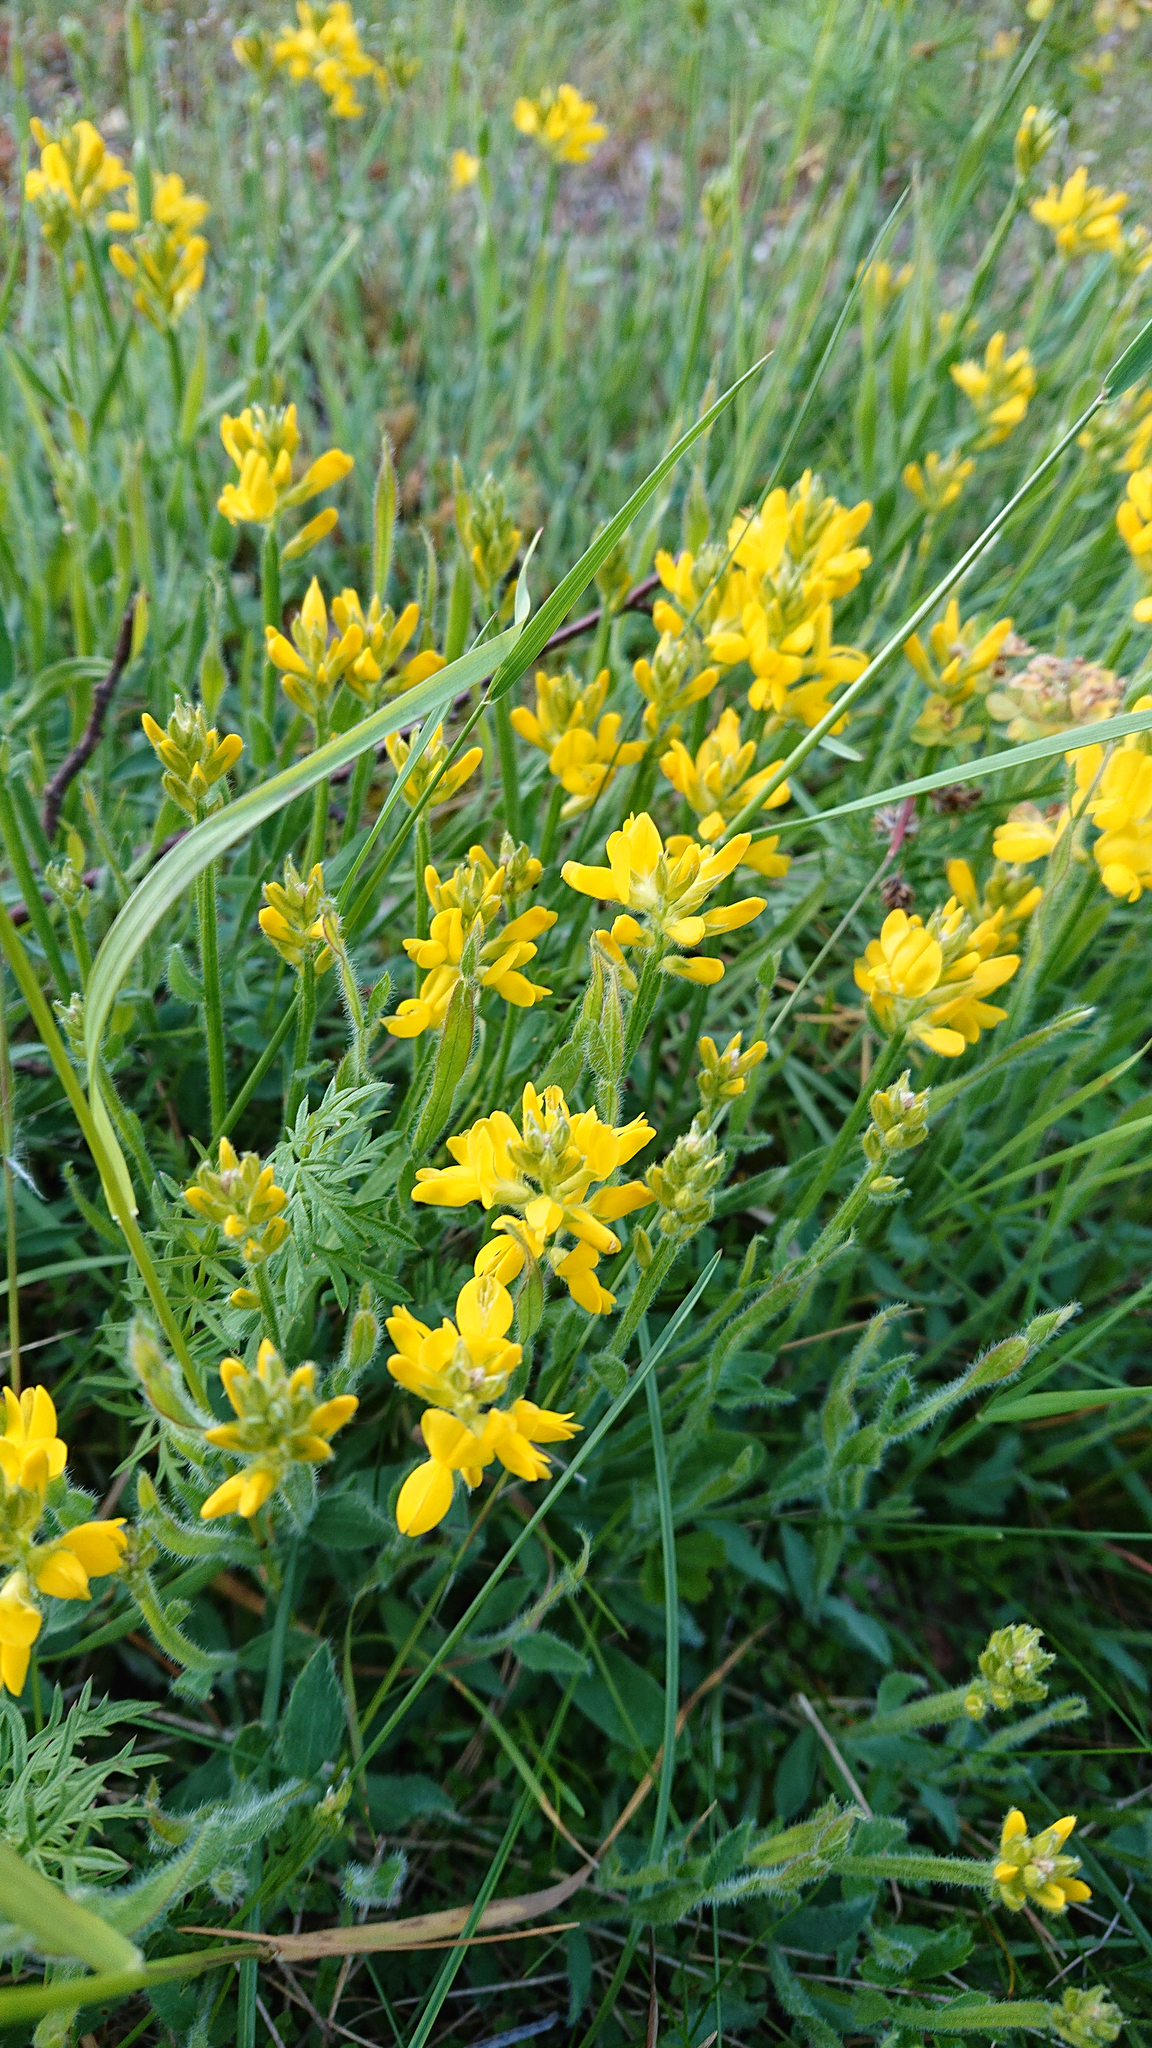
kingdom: Plantae
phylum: Tracheophyta
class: Magnoliopsida
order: Fabales
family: Fabaceae
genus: Genista
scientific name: Genista sagittalis
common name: Winged greenweed
